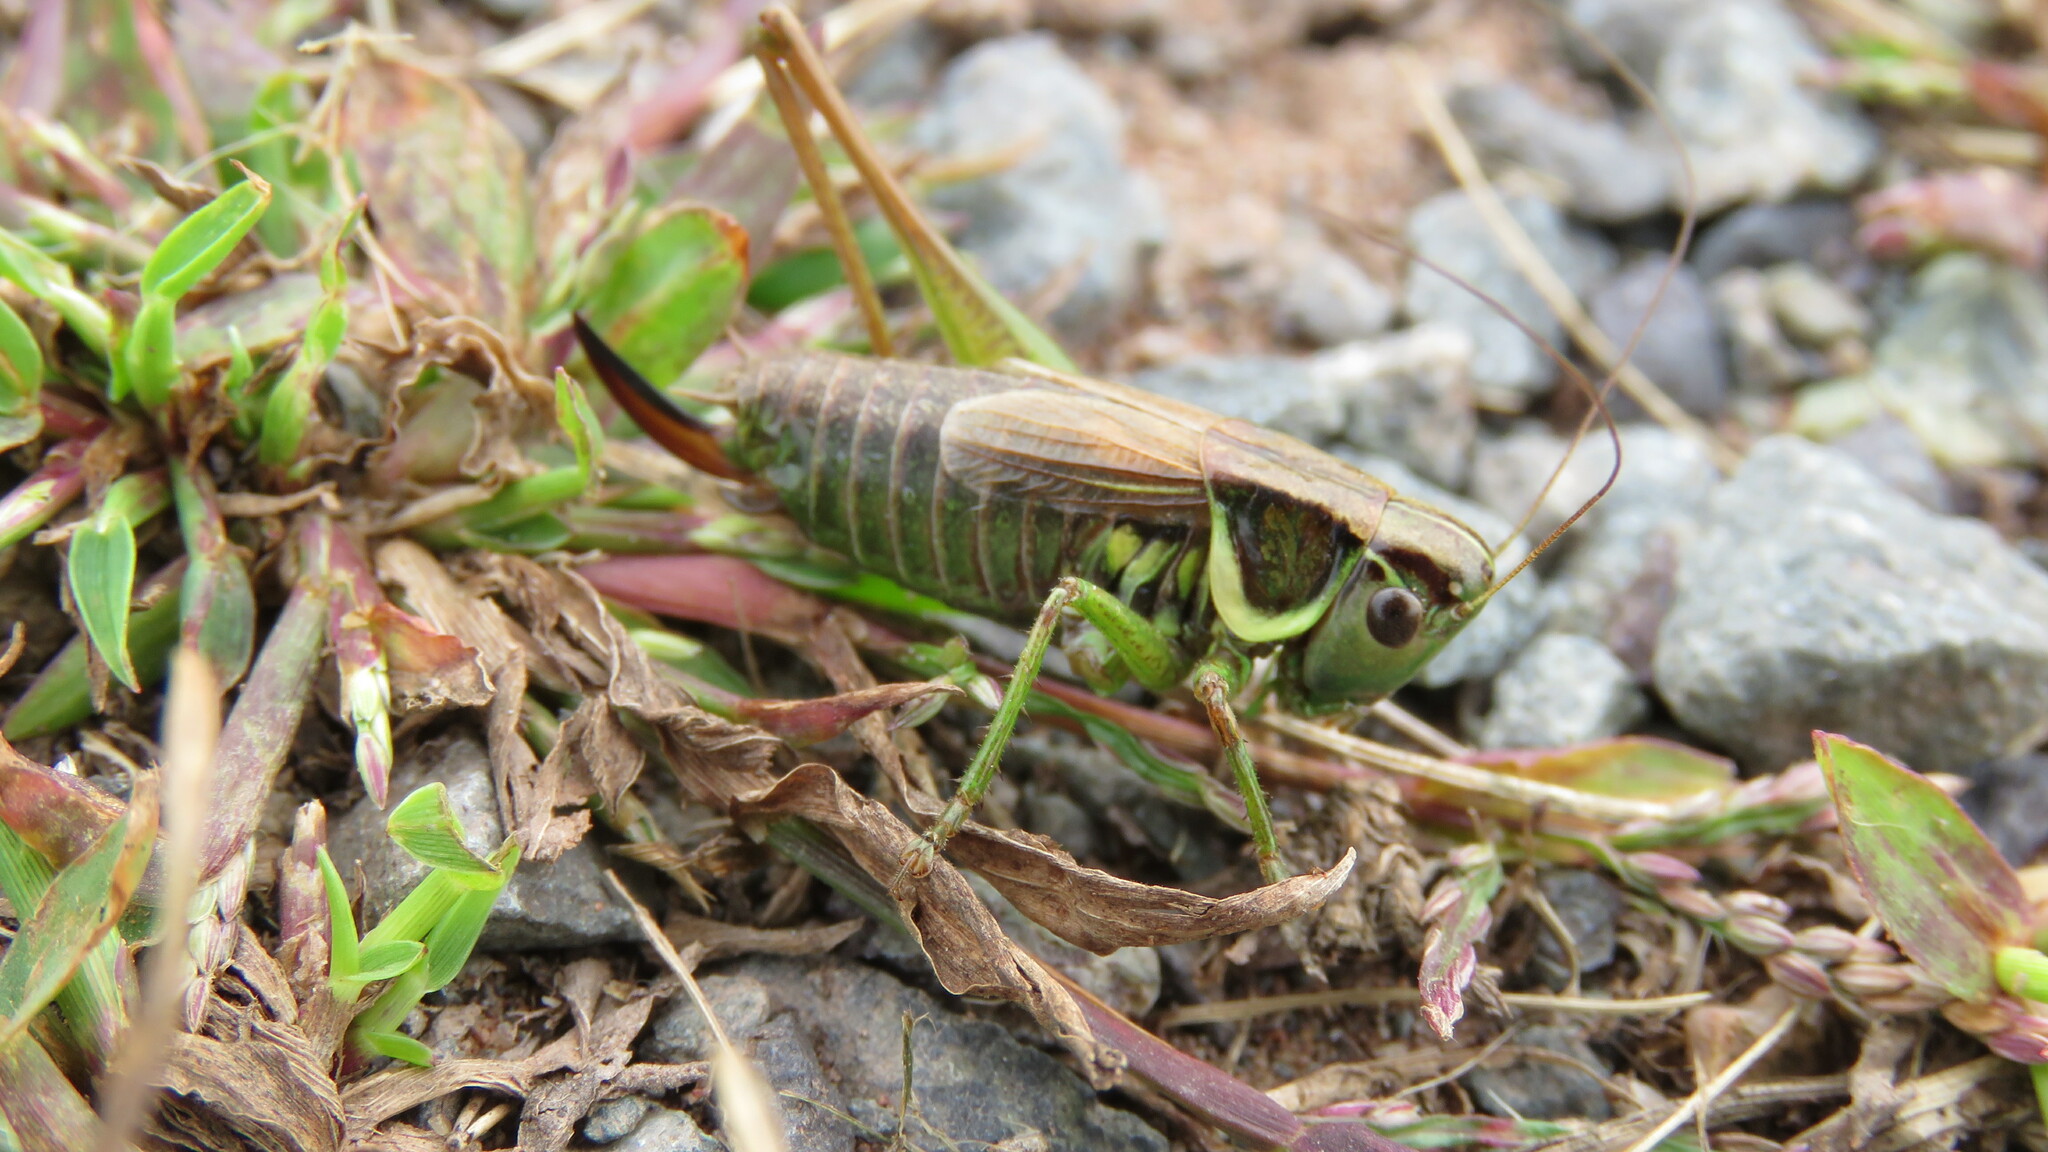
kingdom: Animalia
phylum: Arthropoda
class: Insecta
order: Orthoptera
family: Tettigoniidae
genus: Roeseliana
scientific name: Roeseliana roeselii
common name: Roesel's bush cricket
